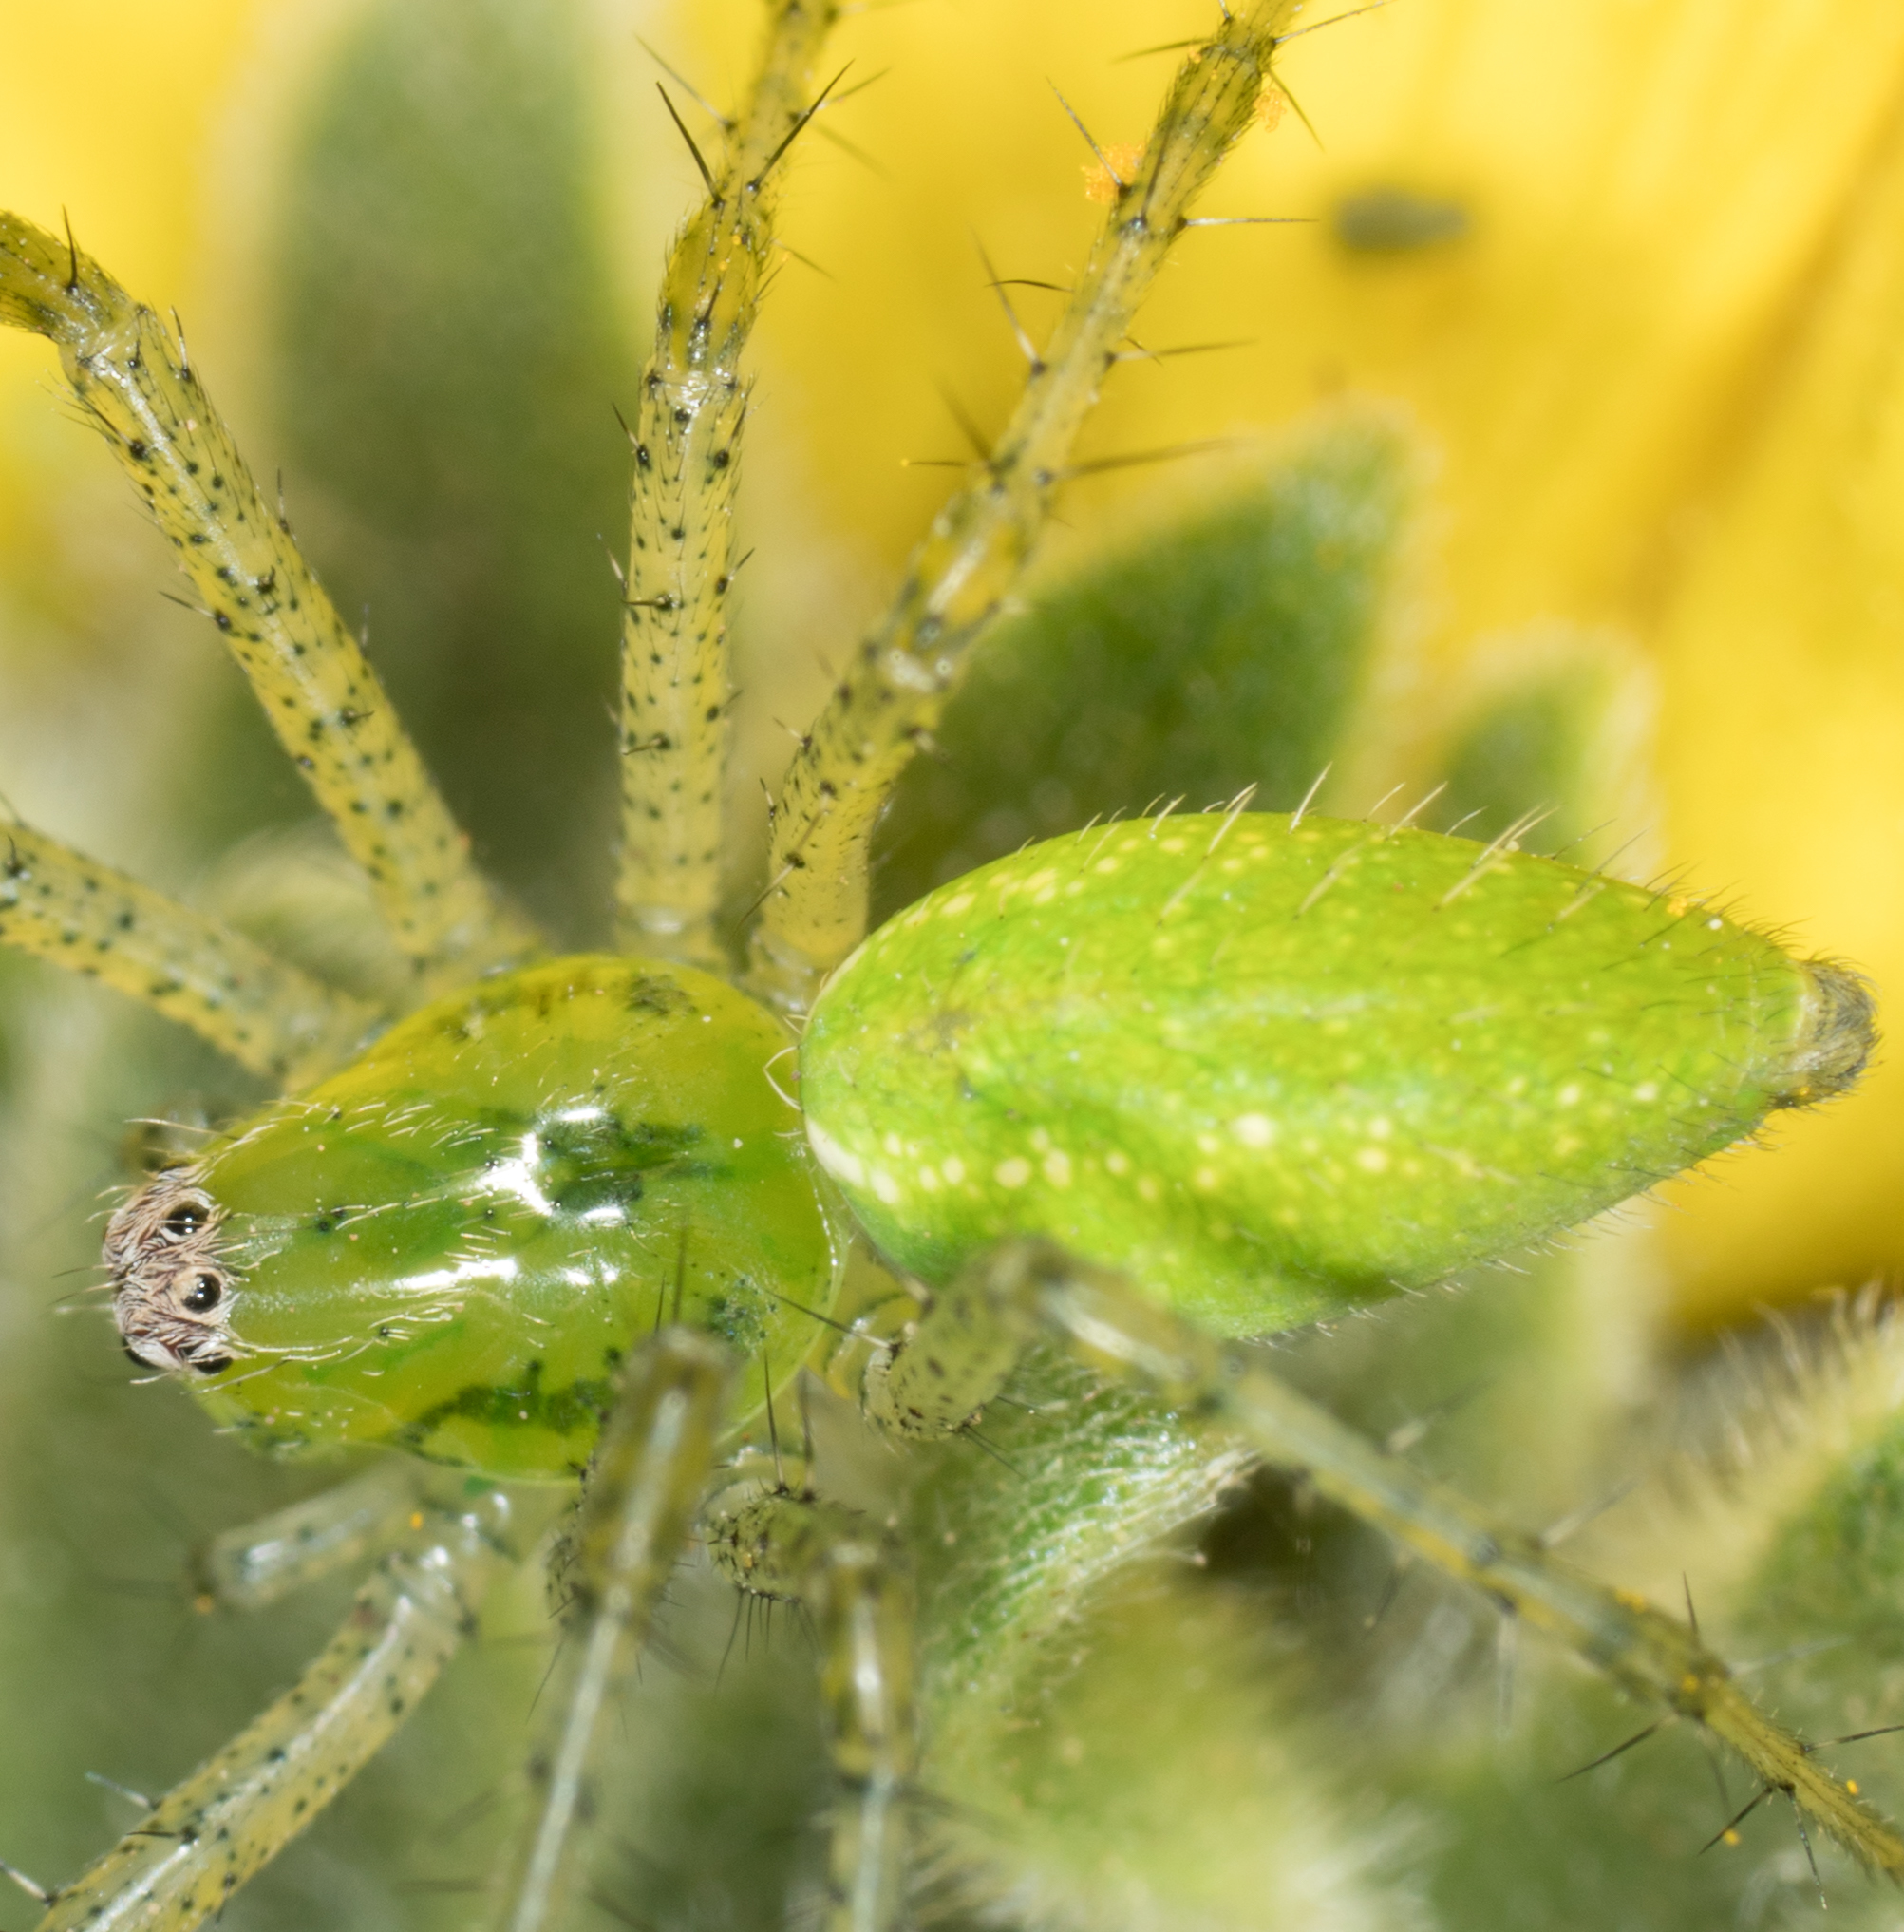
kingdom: Animalia
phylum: Arthropoda
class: Arachnida
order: Araneae
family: Oxyopidae
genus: Peucetia
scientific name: Peucetia longipalpis
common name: Lynx spiders
